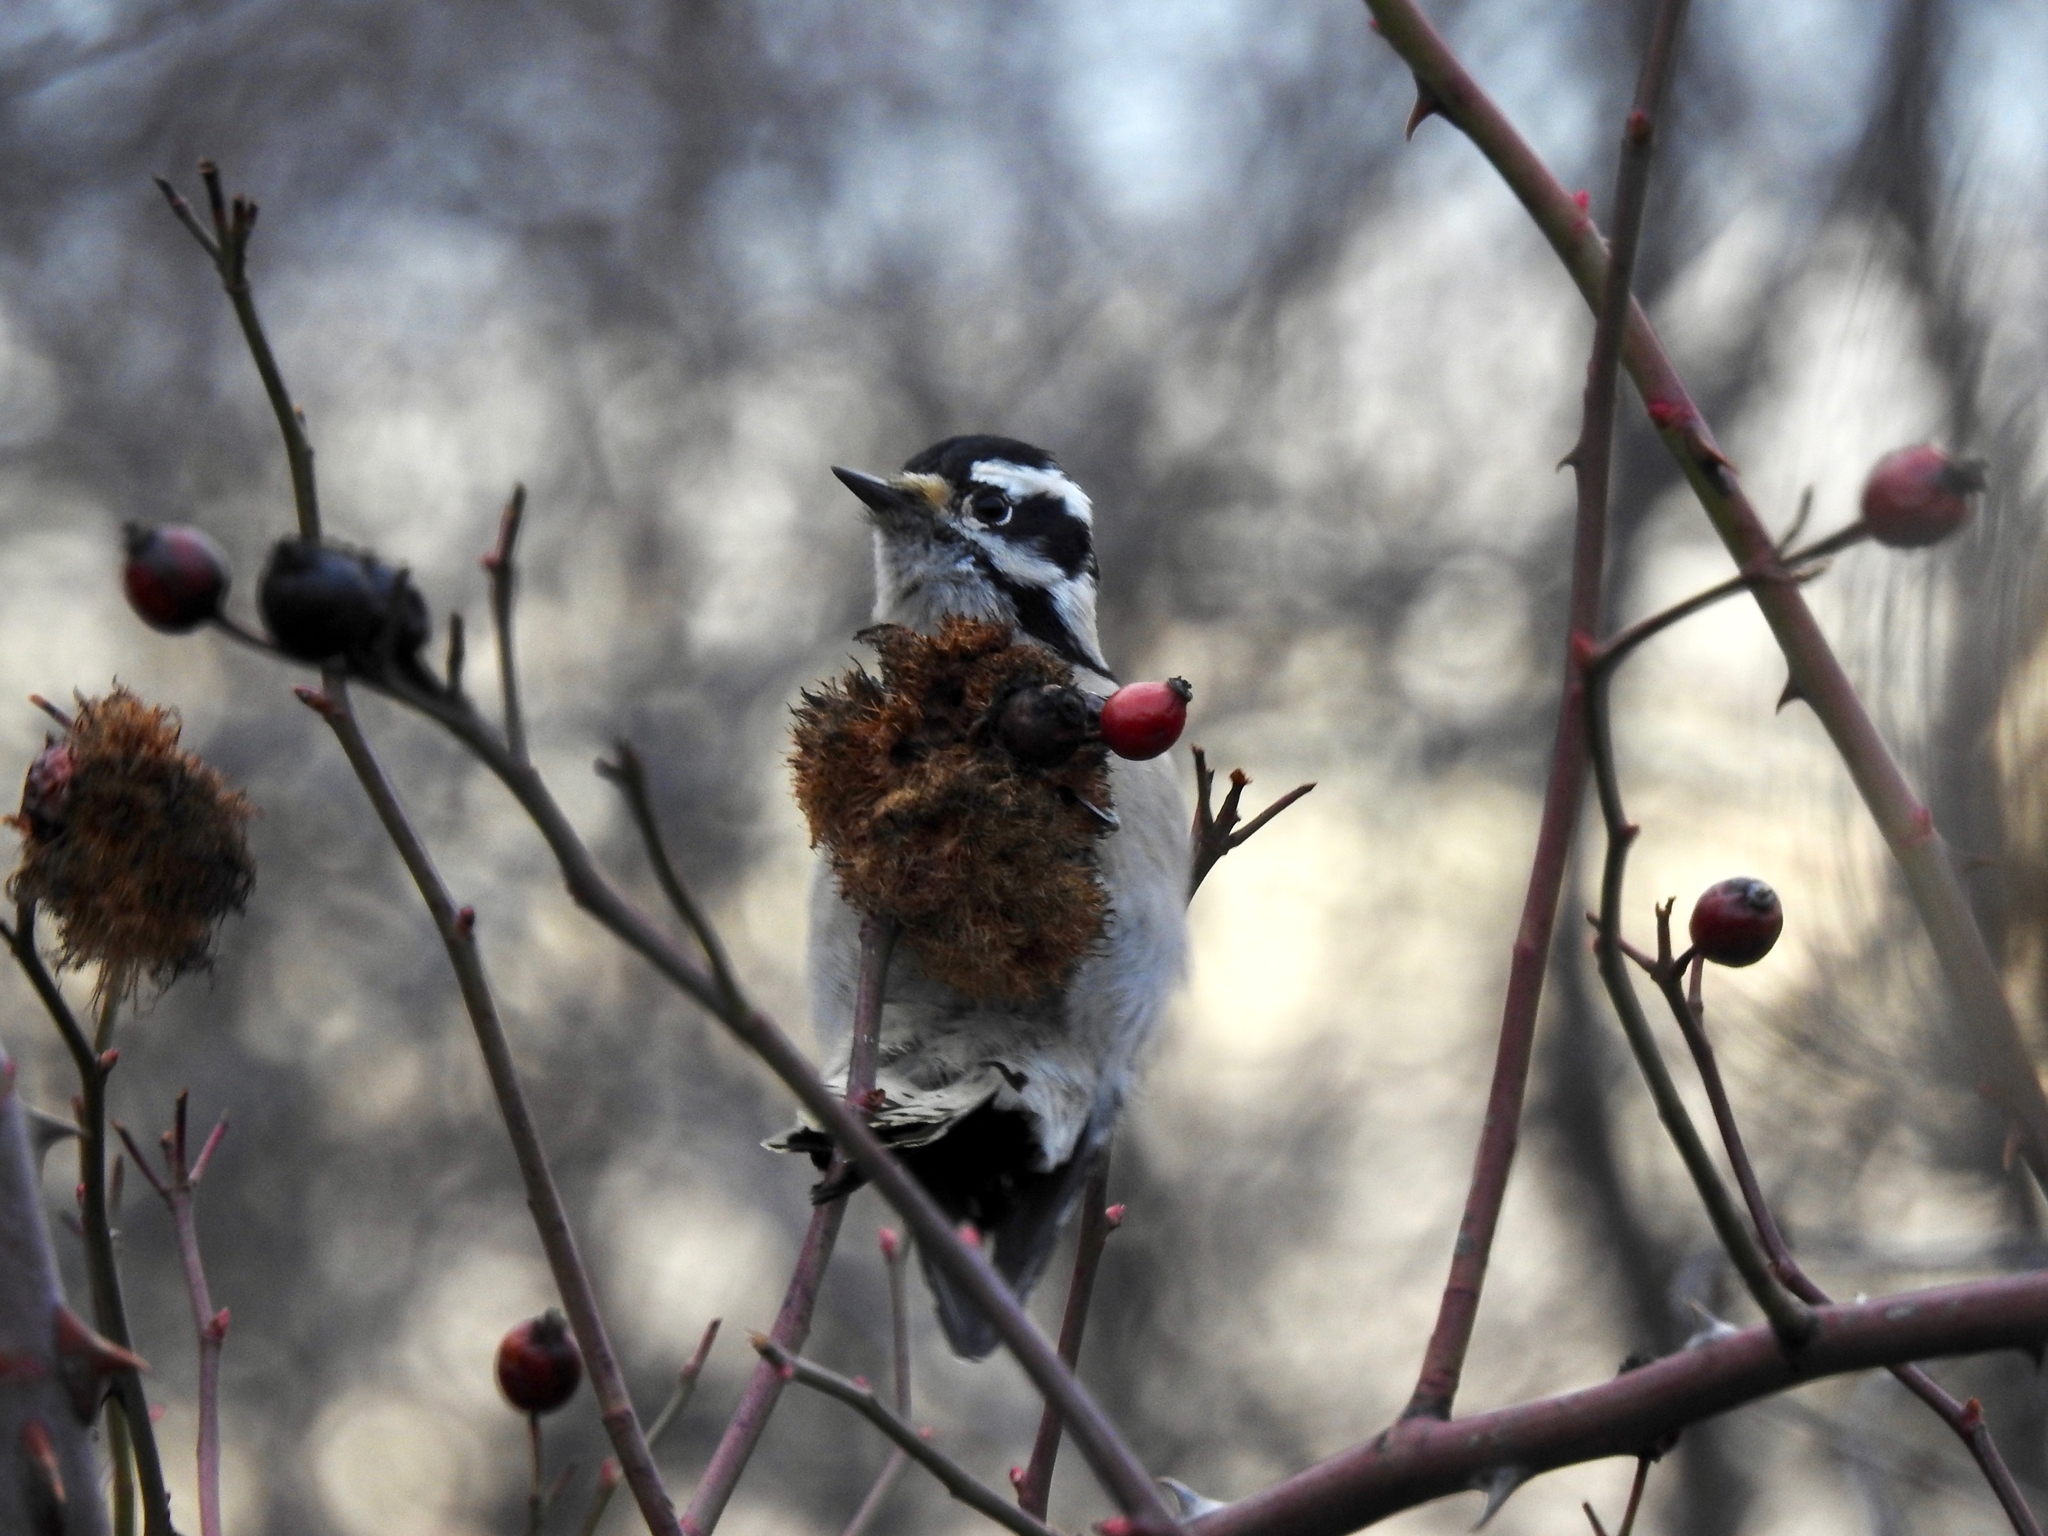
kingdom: Animalia
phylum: Chordata
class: Aves
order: Piciformes
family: Picidae
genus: Dryobates
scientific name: Dryobates pubescens
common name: Downy woodpecker
